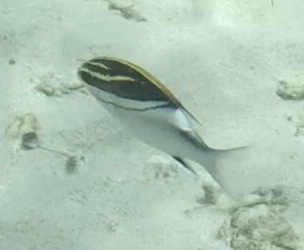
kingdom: Animalia
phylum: Chordata
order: Perciformes
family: Nemipteridae
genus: Scolopsis
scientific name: Scolopsis bilineata
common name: Two-lined monocle bream
